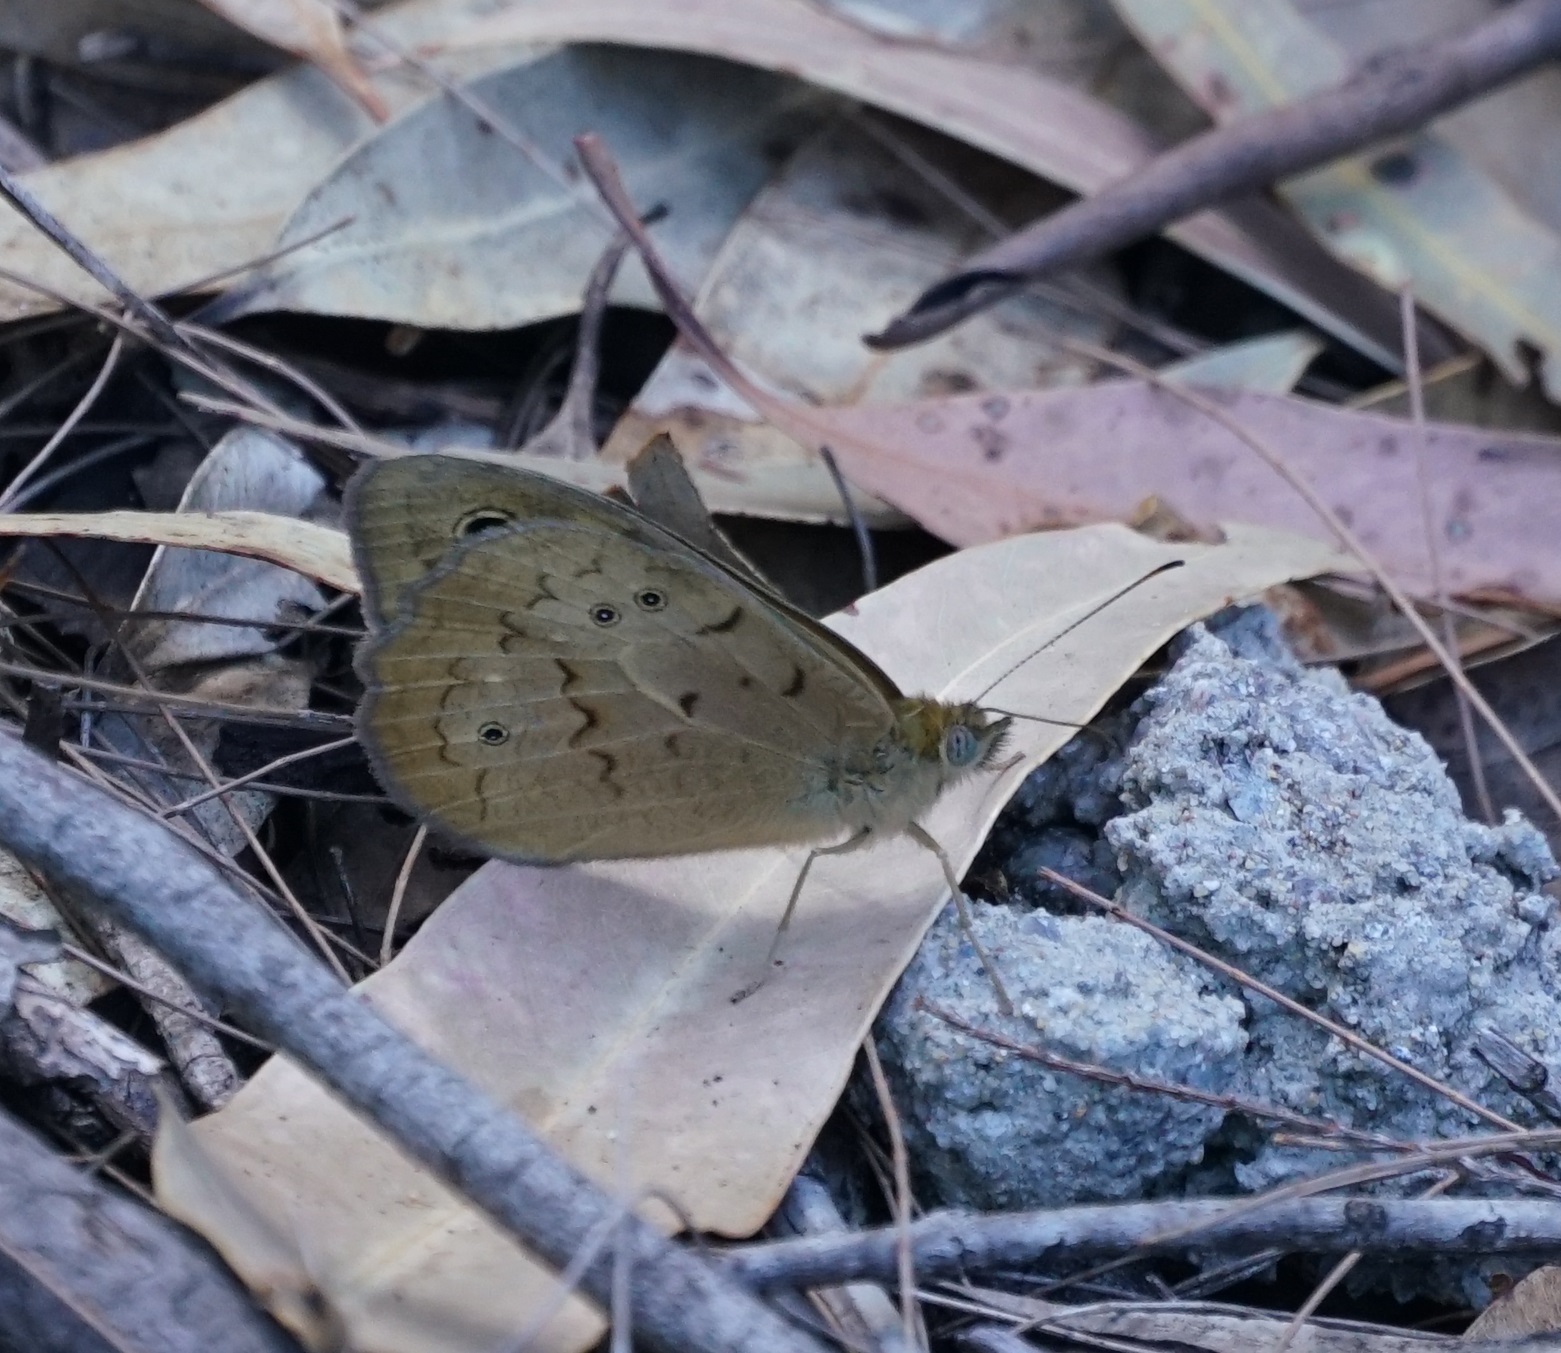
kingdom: Animalia
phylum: Arthropoda
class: Insecta
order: Lepidoptera
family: Nymphalidae
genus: Heteronympha
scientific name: Heteronympha merope
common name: Common brown
